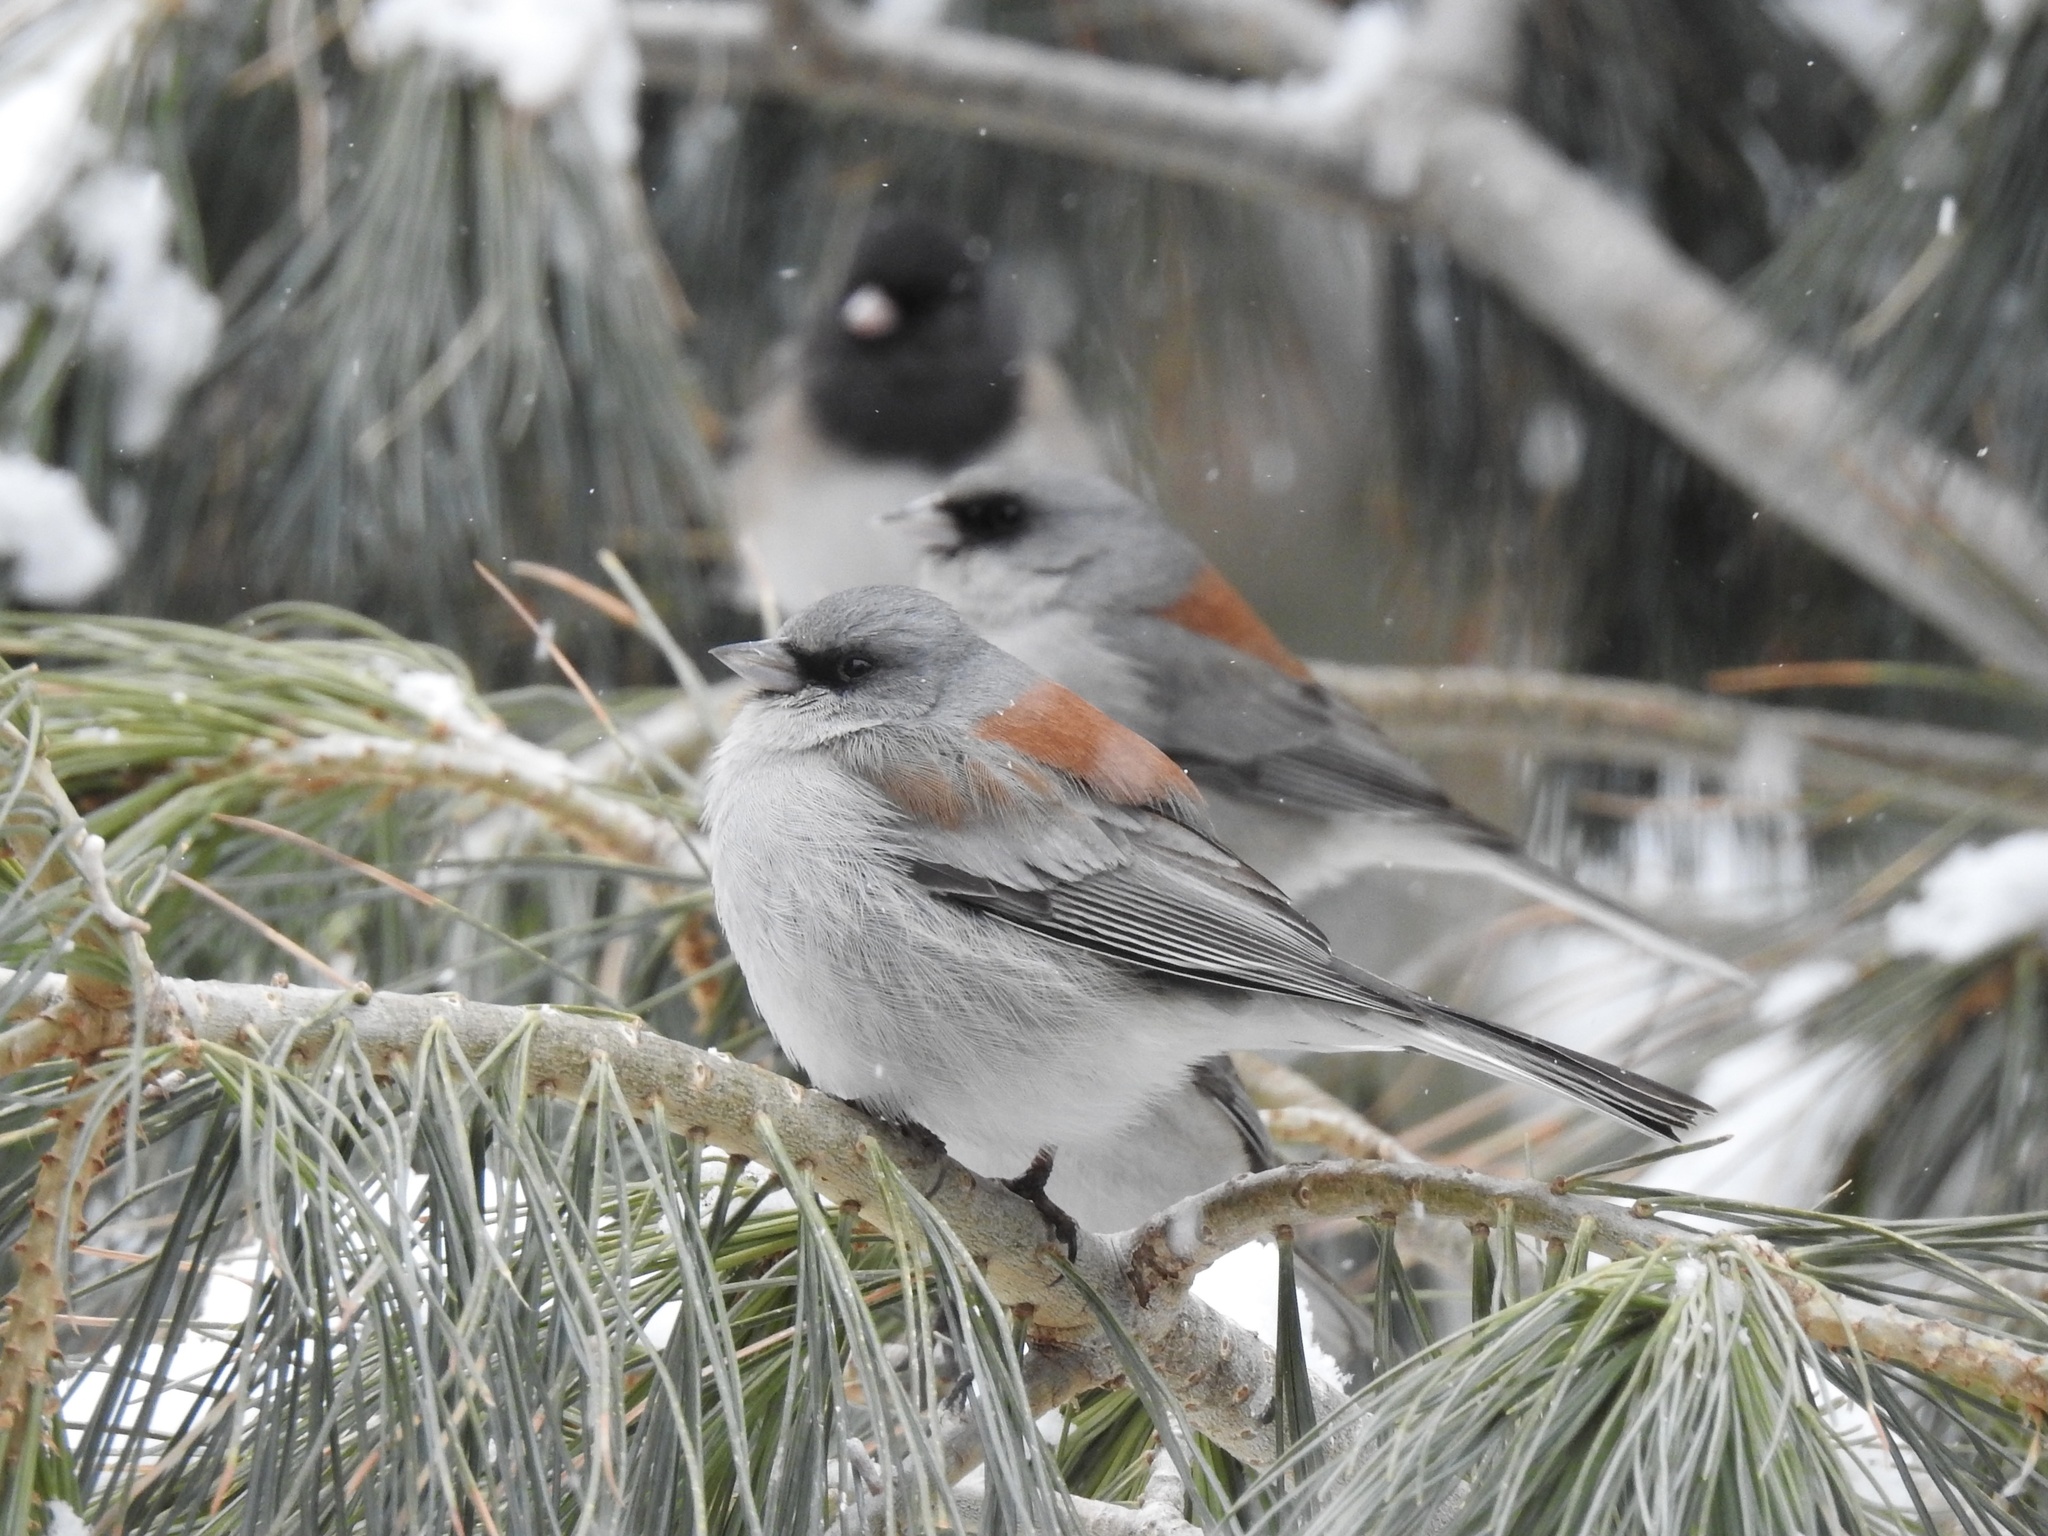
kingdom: Animalia
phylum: Chordata
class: Aves
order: Passeriformes
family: Passerellidae
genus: Junco
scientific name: Junco hyemalis
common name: Dark-eyed junco
